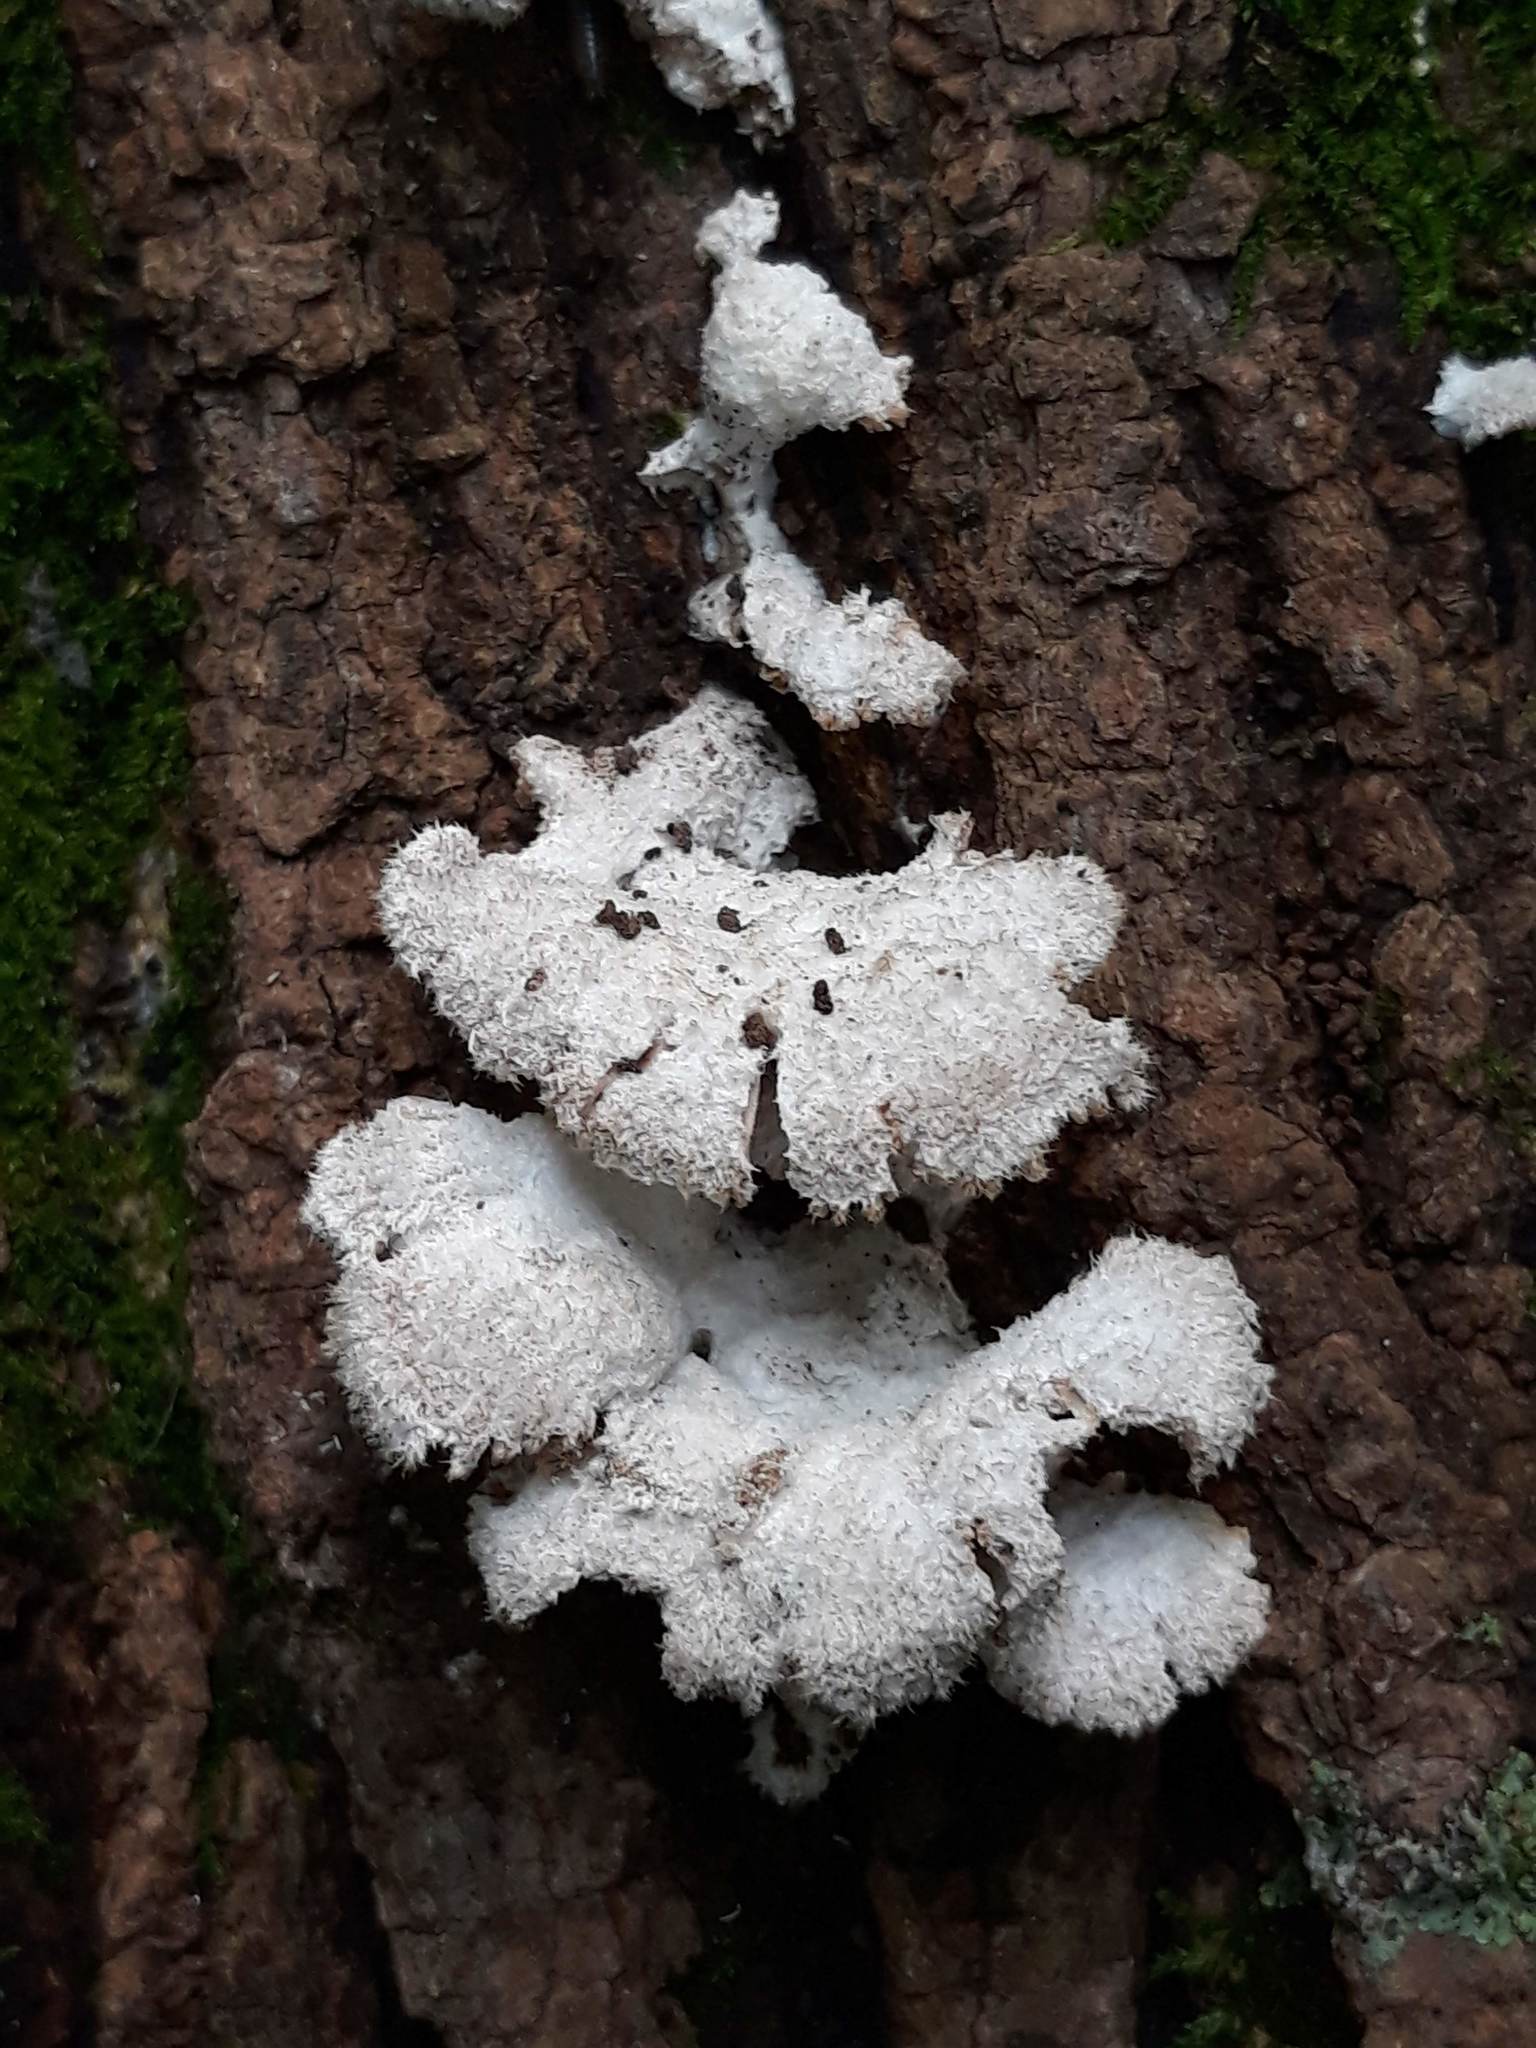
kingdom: Fungi
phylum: Basidiomycota
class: Agaricomycetes
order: Agaricales
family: Schizophyllaceae
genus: Schizophyllum
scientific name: Schizophyllum commune
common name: Common porecrust
